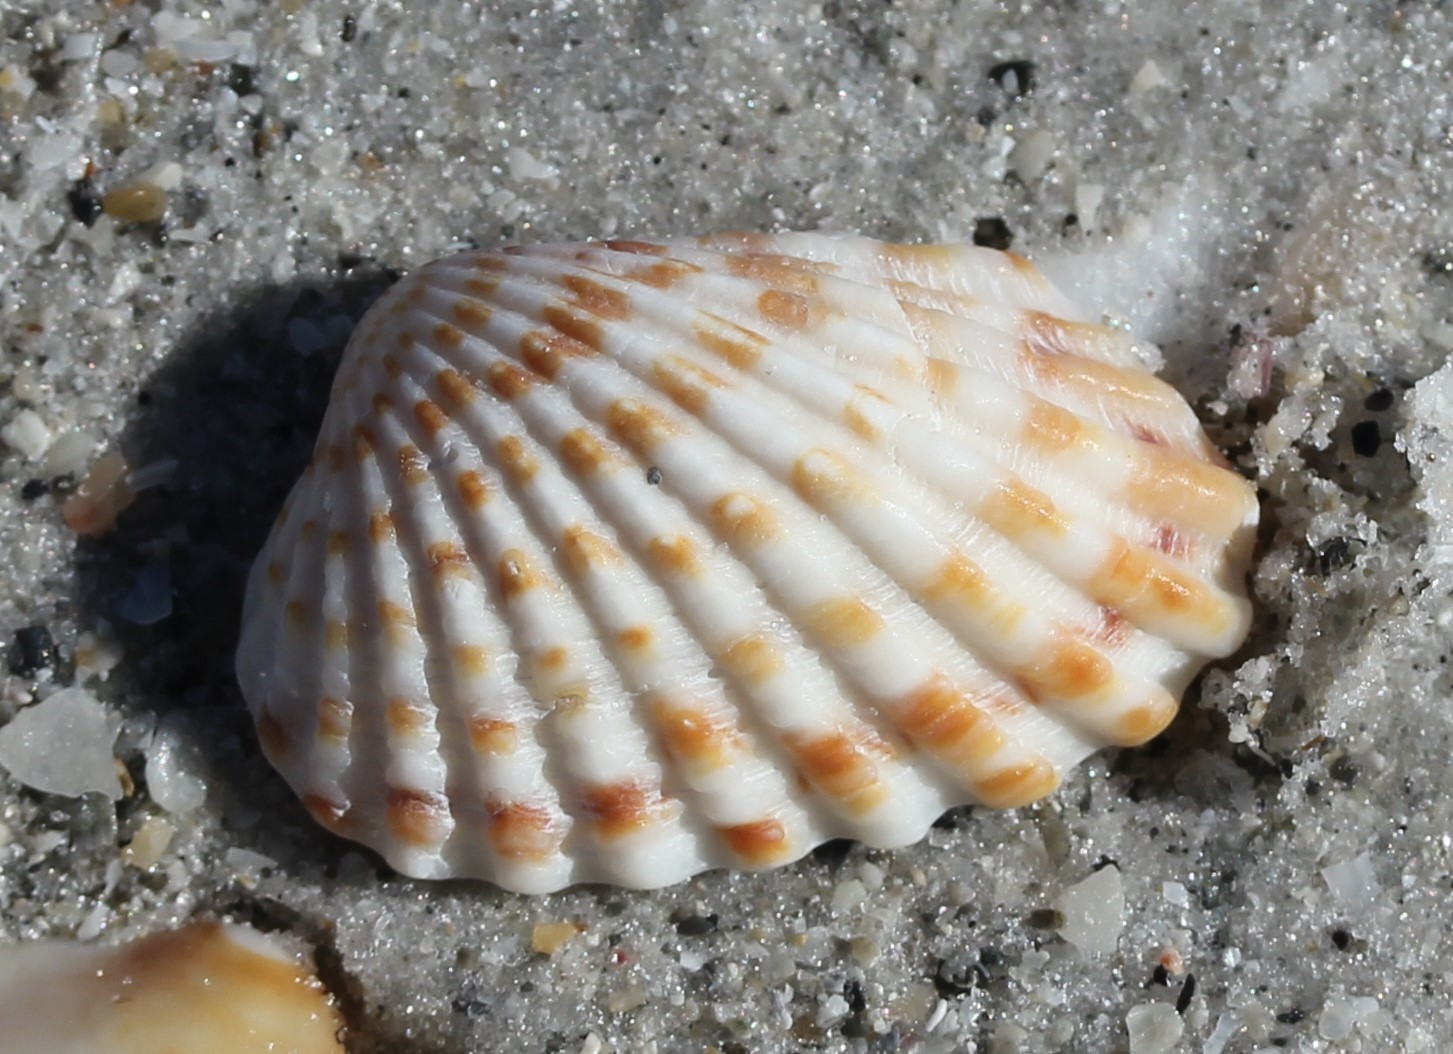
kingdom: Animalia
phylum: Mollusca
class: Bivalvia
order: Carditida
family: Carditidae
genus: Cardites
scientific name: Cardites floridanus
